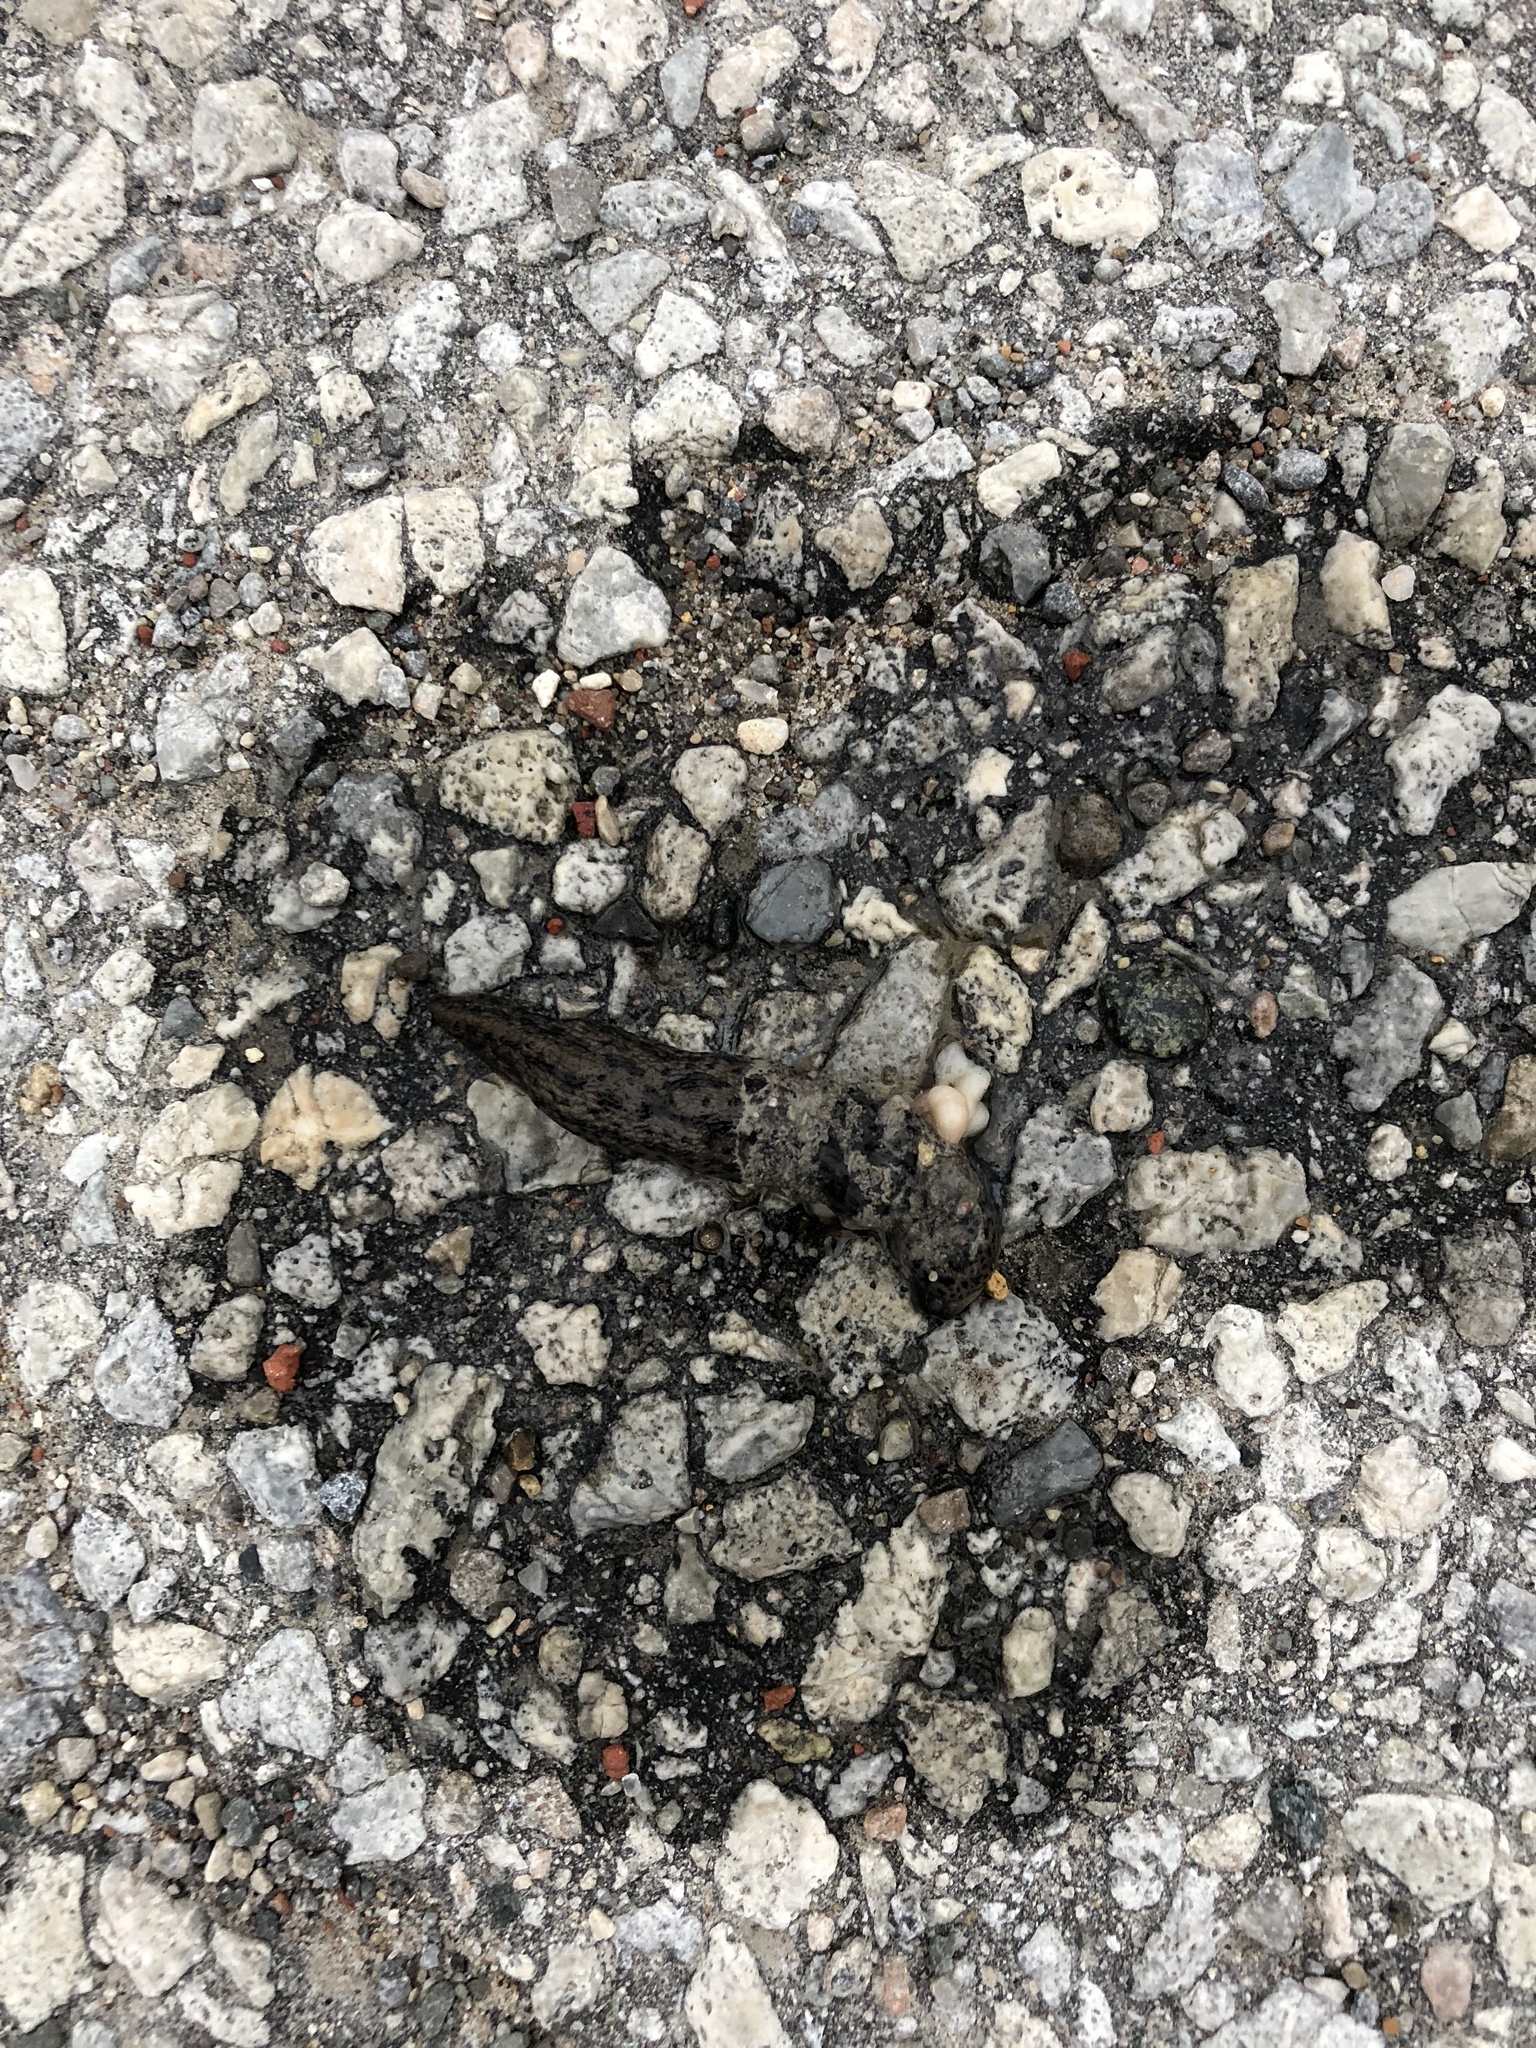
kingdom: Animalia
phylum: Mollusca
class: Gastropoda
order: Stylommatophora
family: Limacidae
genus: Limax
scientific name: Limax maximus
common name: Great grey slug
